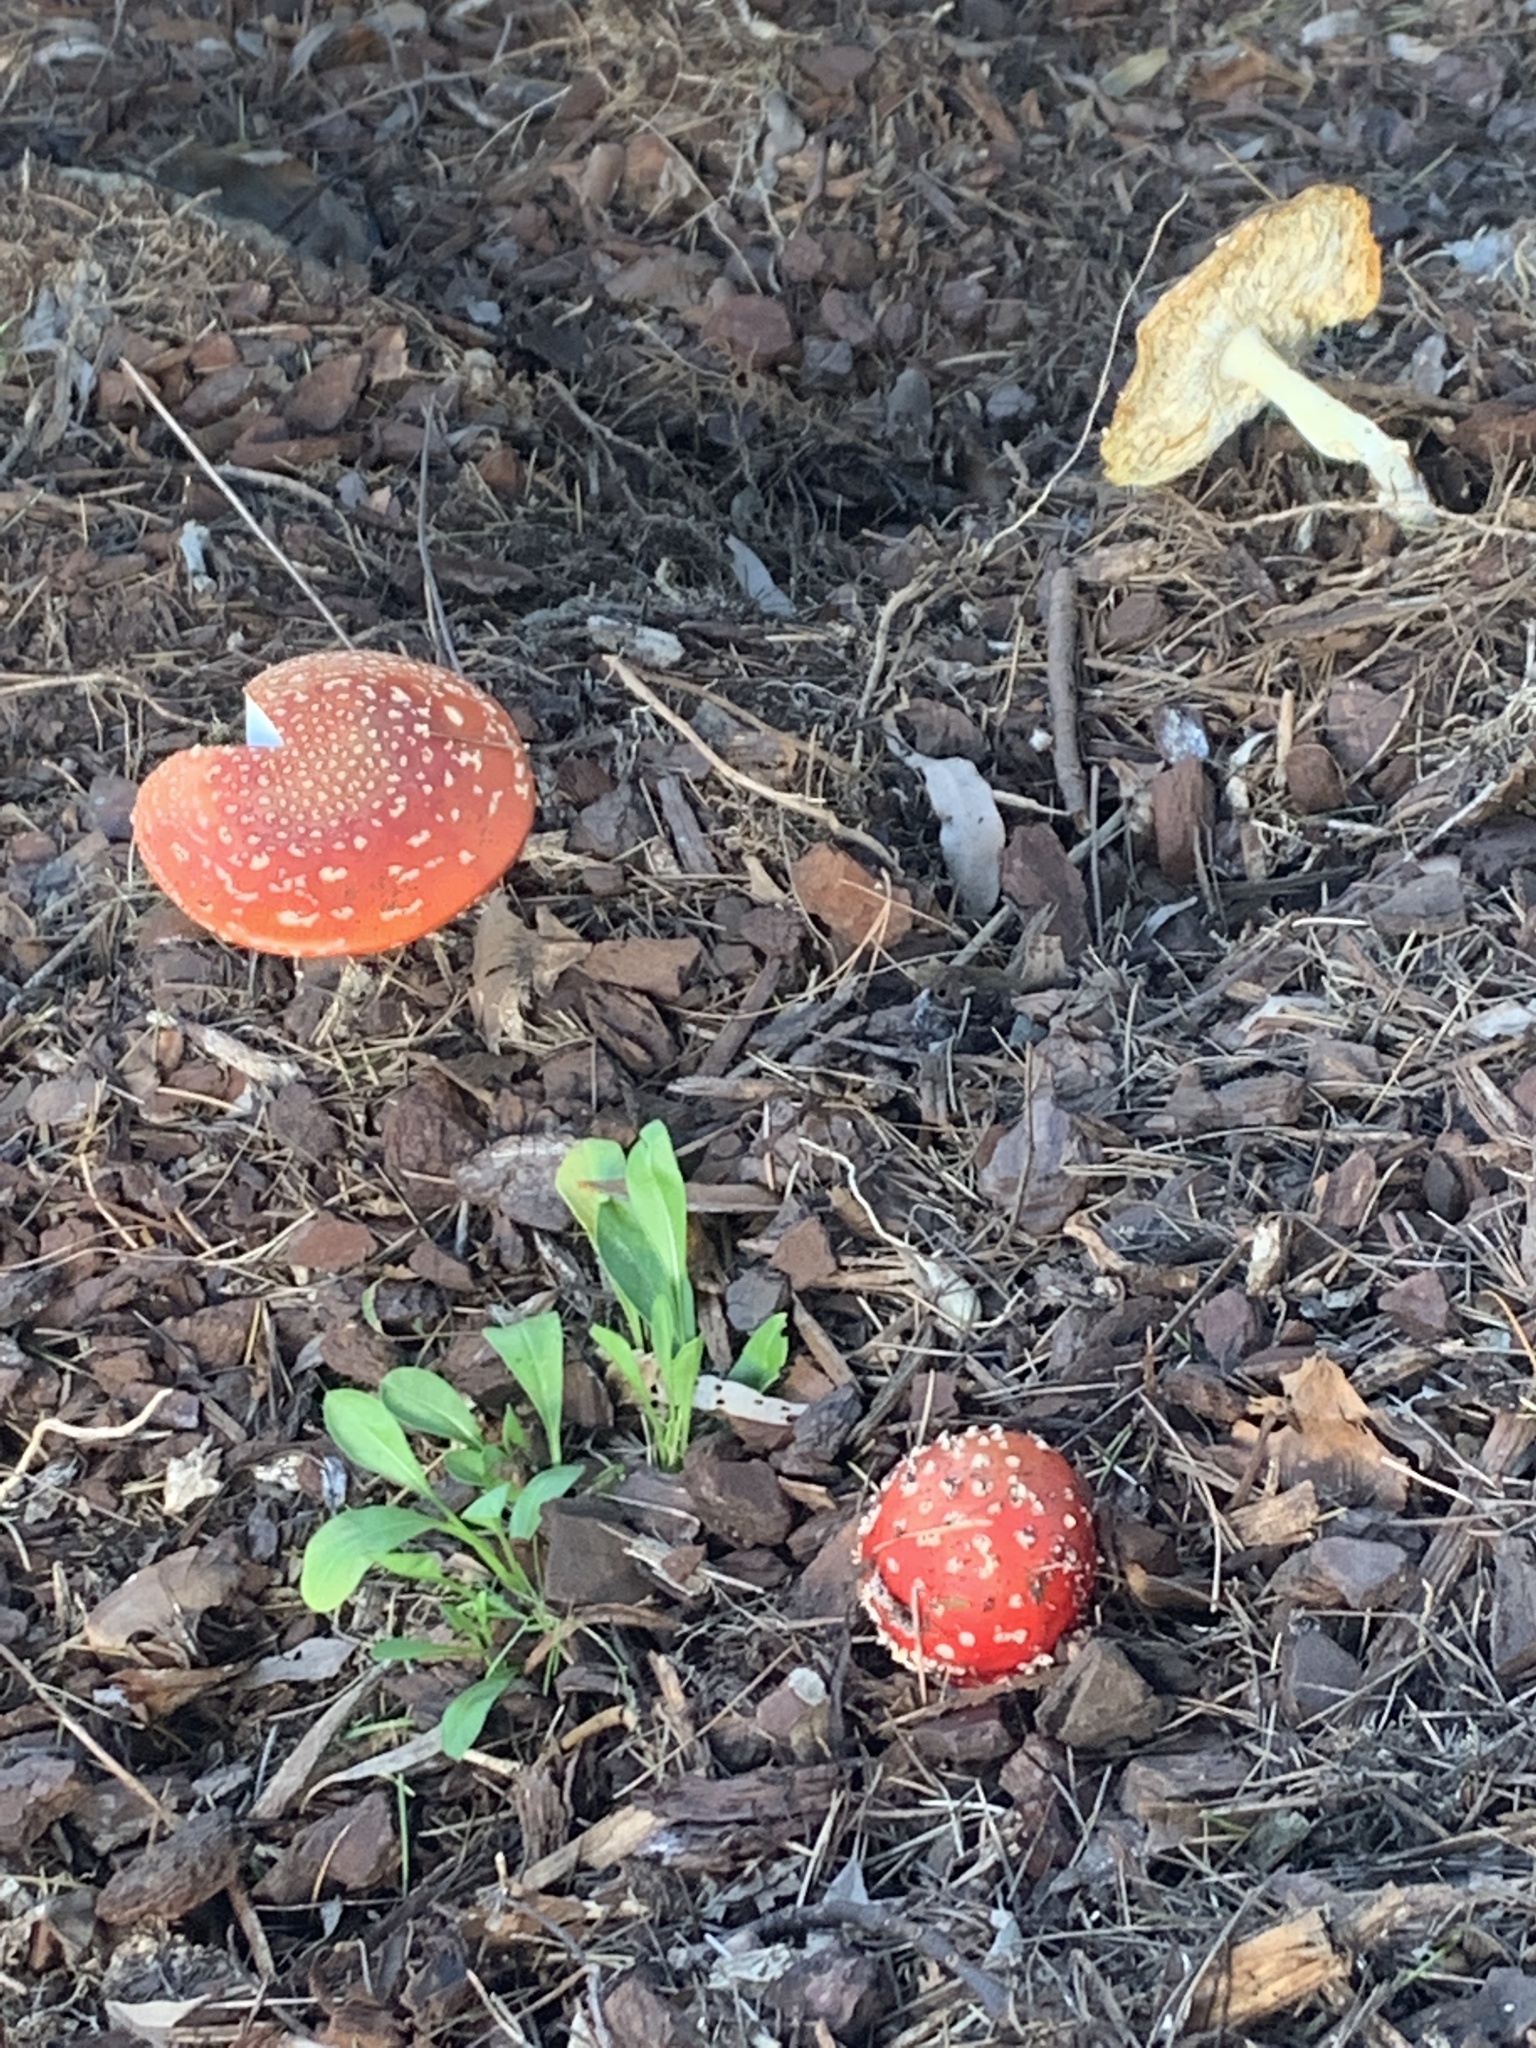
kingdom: Fungi
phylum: Basidiomycota
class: Agaricomycetes
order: Agaricales
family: Amanitaceae
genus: Amanita
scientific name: Amanita muscaria
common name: Fly agaric
